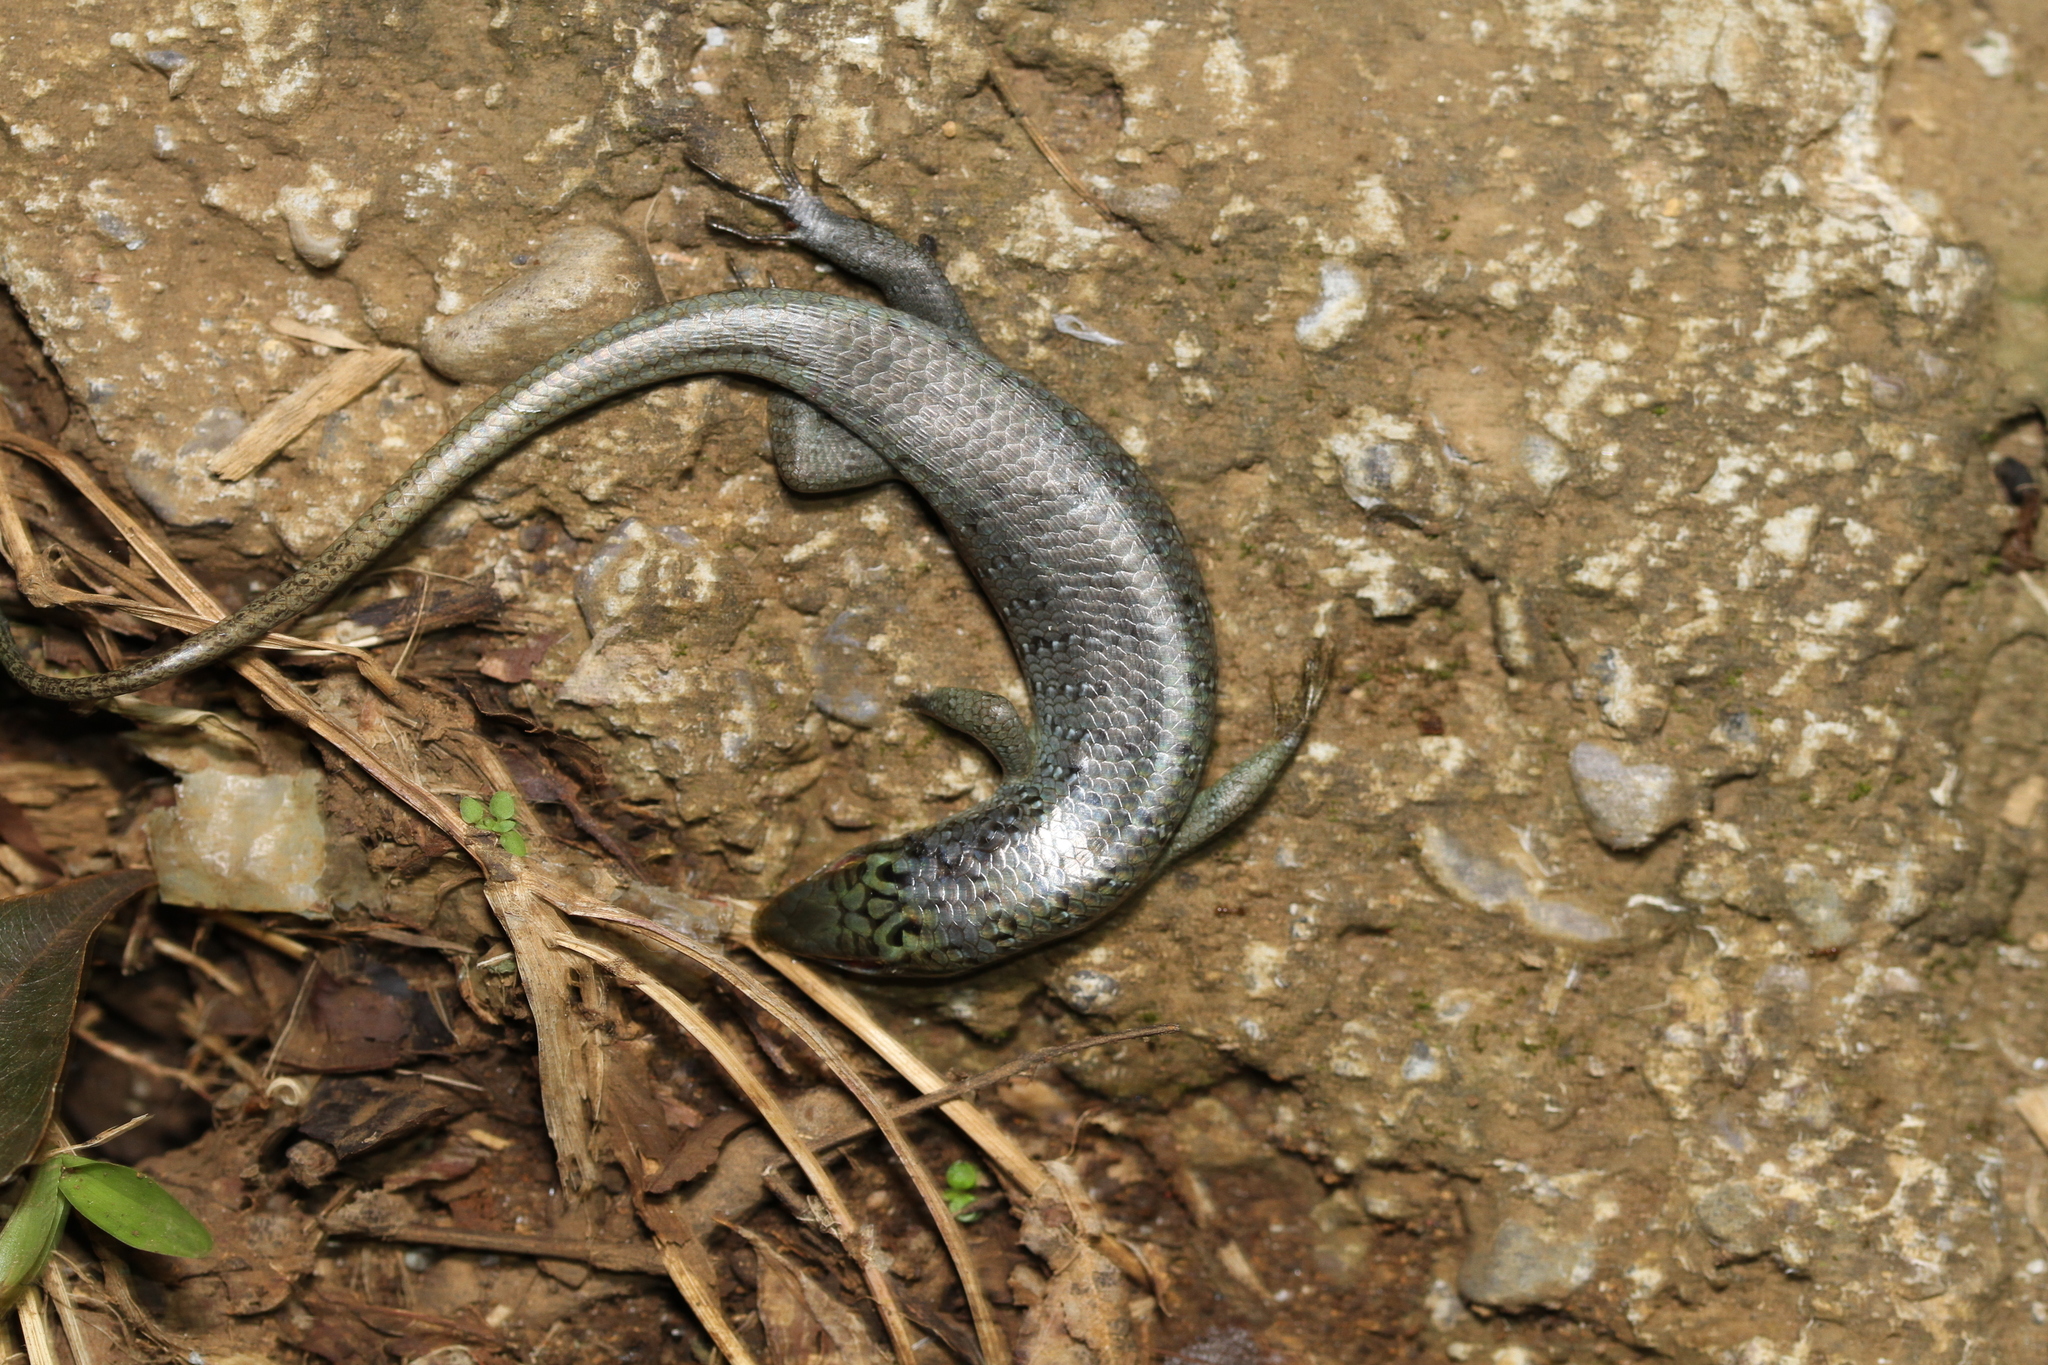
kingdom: Animalia
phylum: Chordata
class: Squamata
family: Scincidae
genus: Dasia
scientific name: Dasia olivacea
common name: Olive dasia
